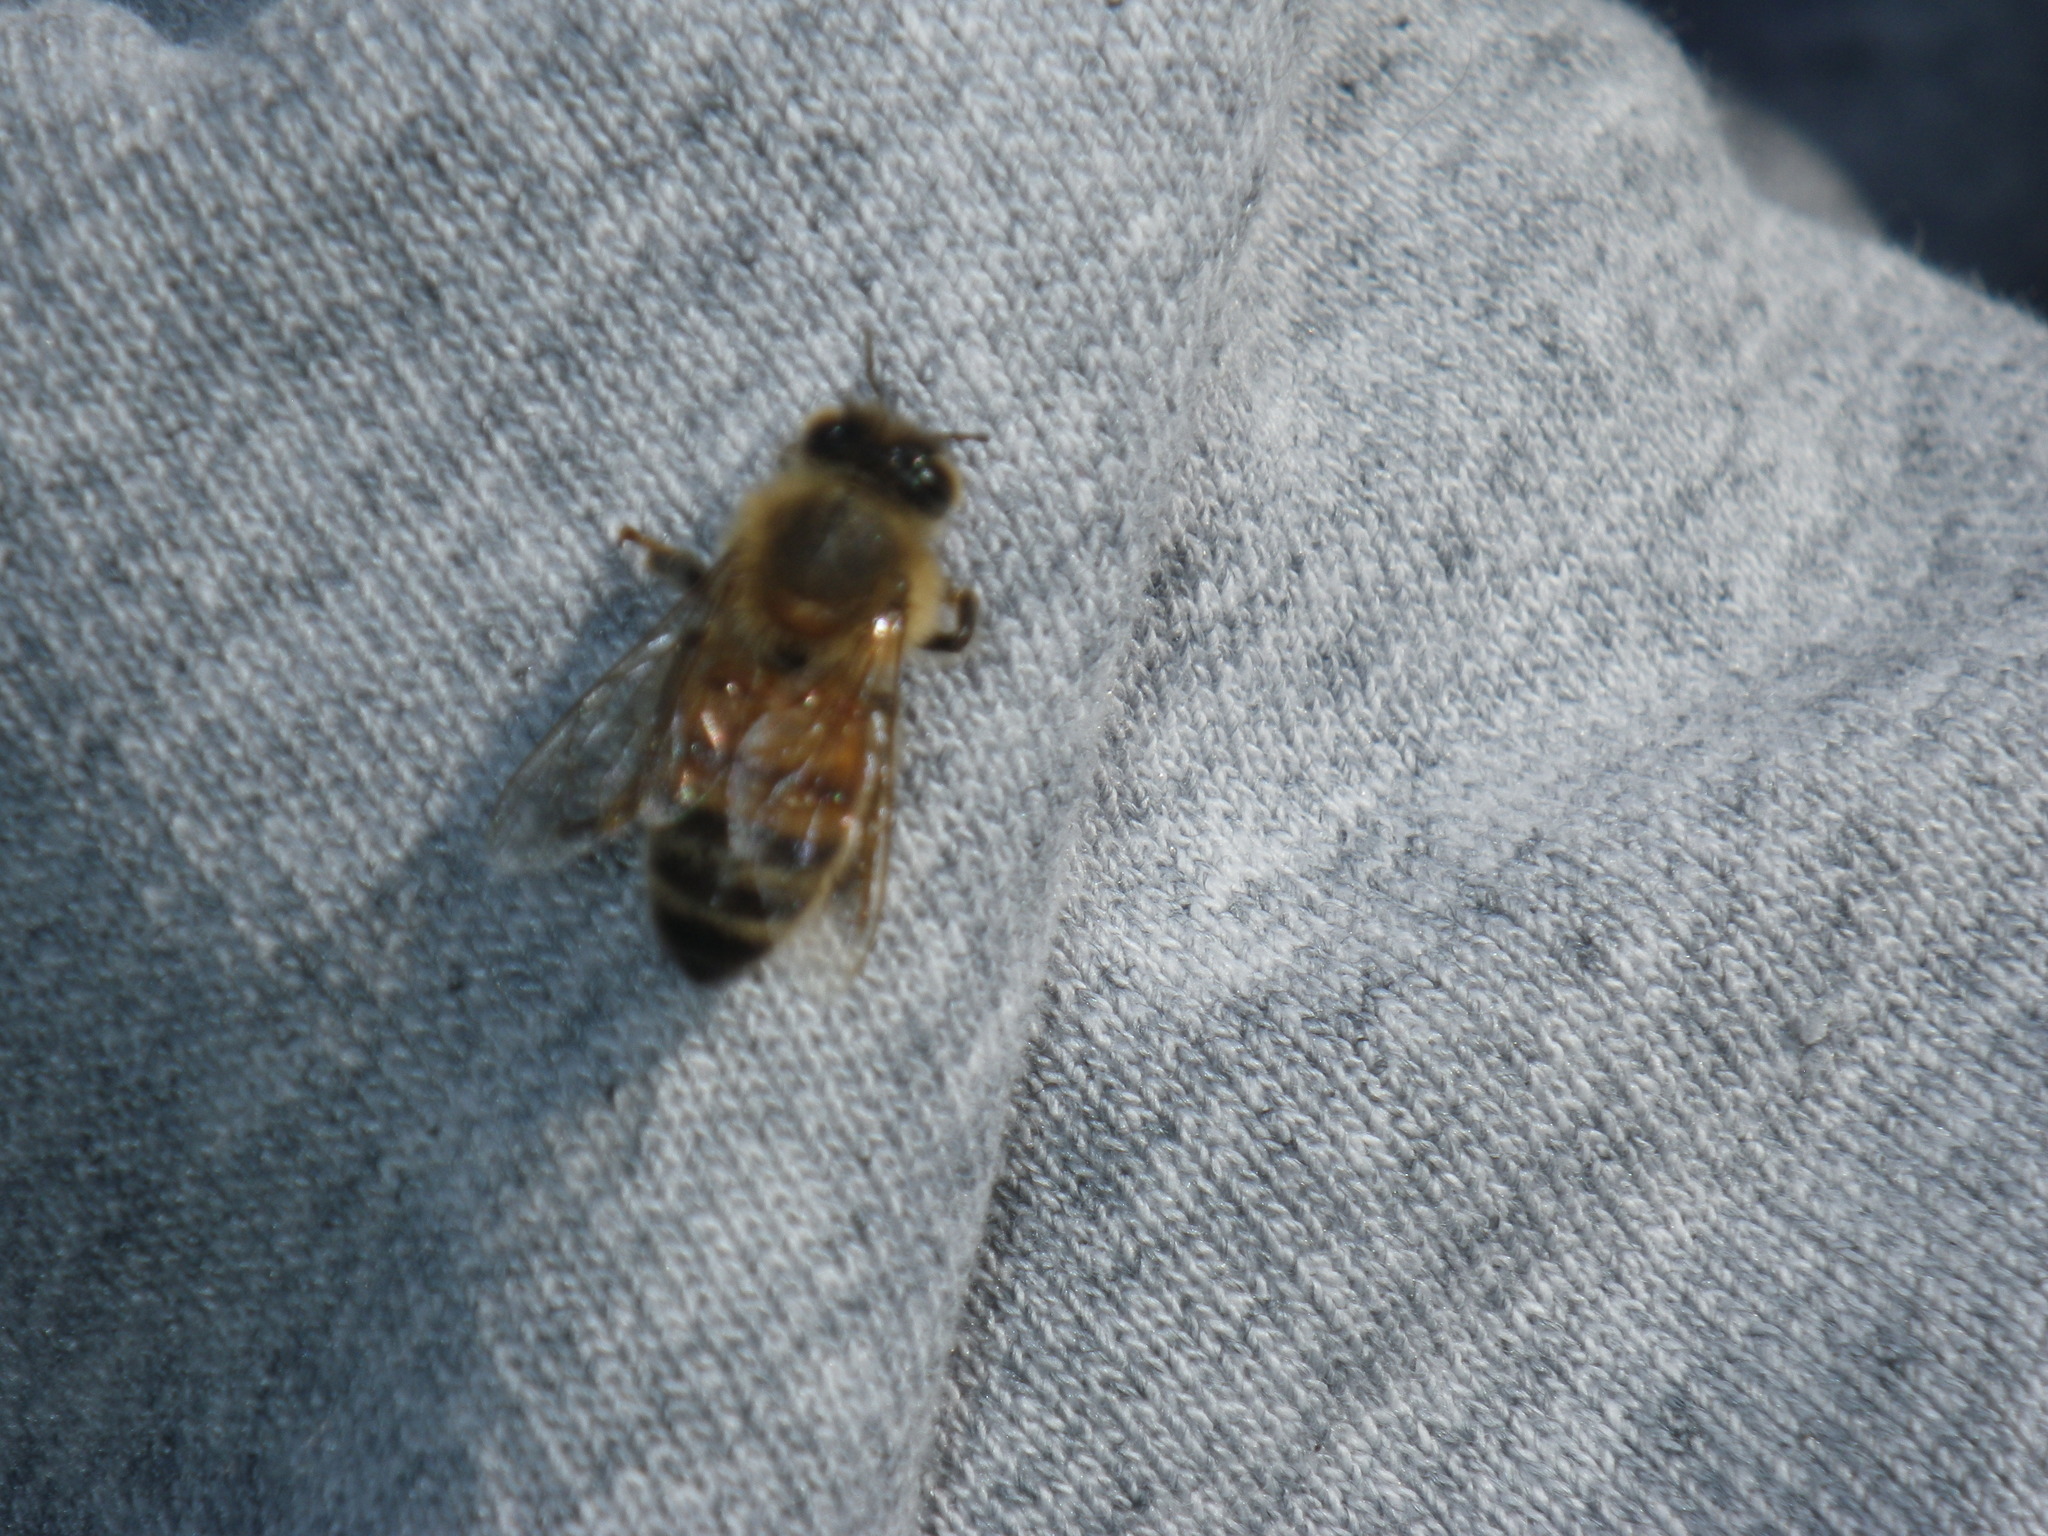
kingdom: Animalia
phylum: Arthropoda
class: Insecta
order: Hymenoptera
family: Apidae
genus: Apis
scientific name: Apis mellifera
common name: Honey bee
